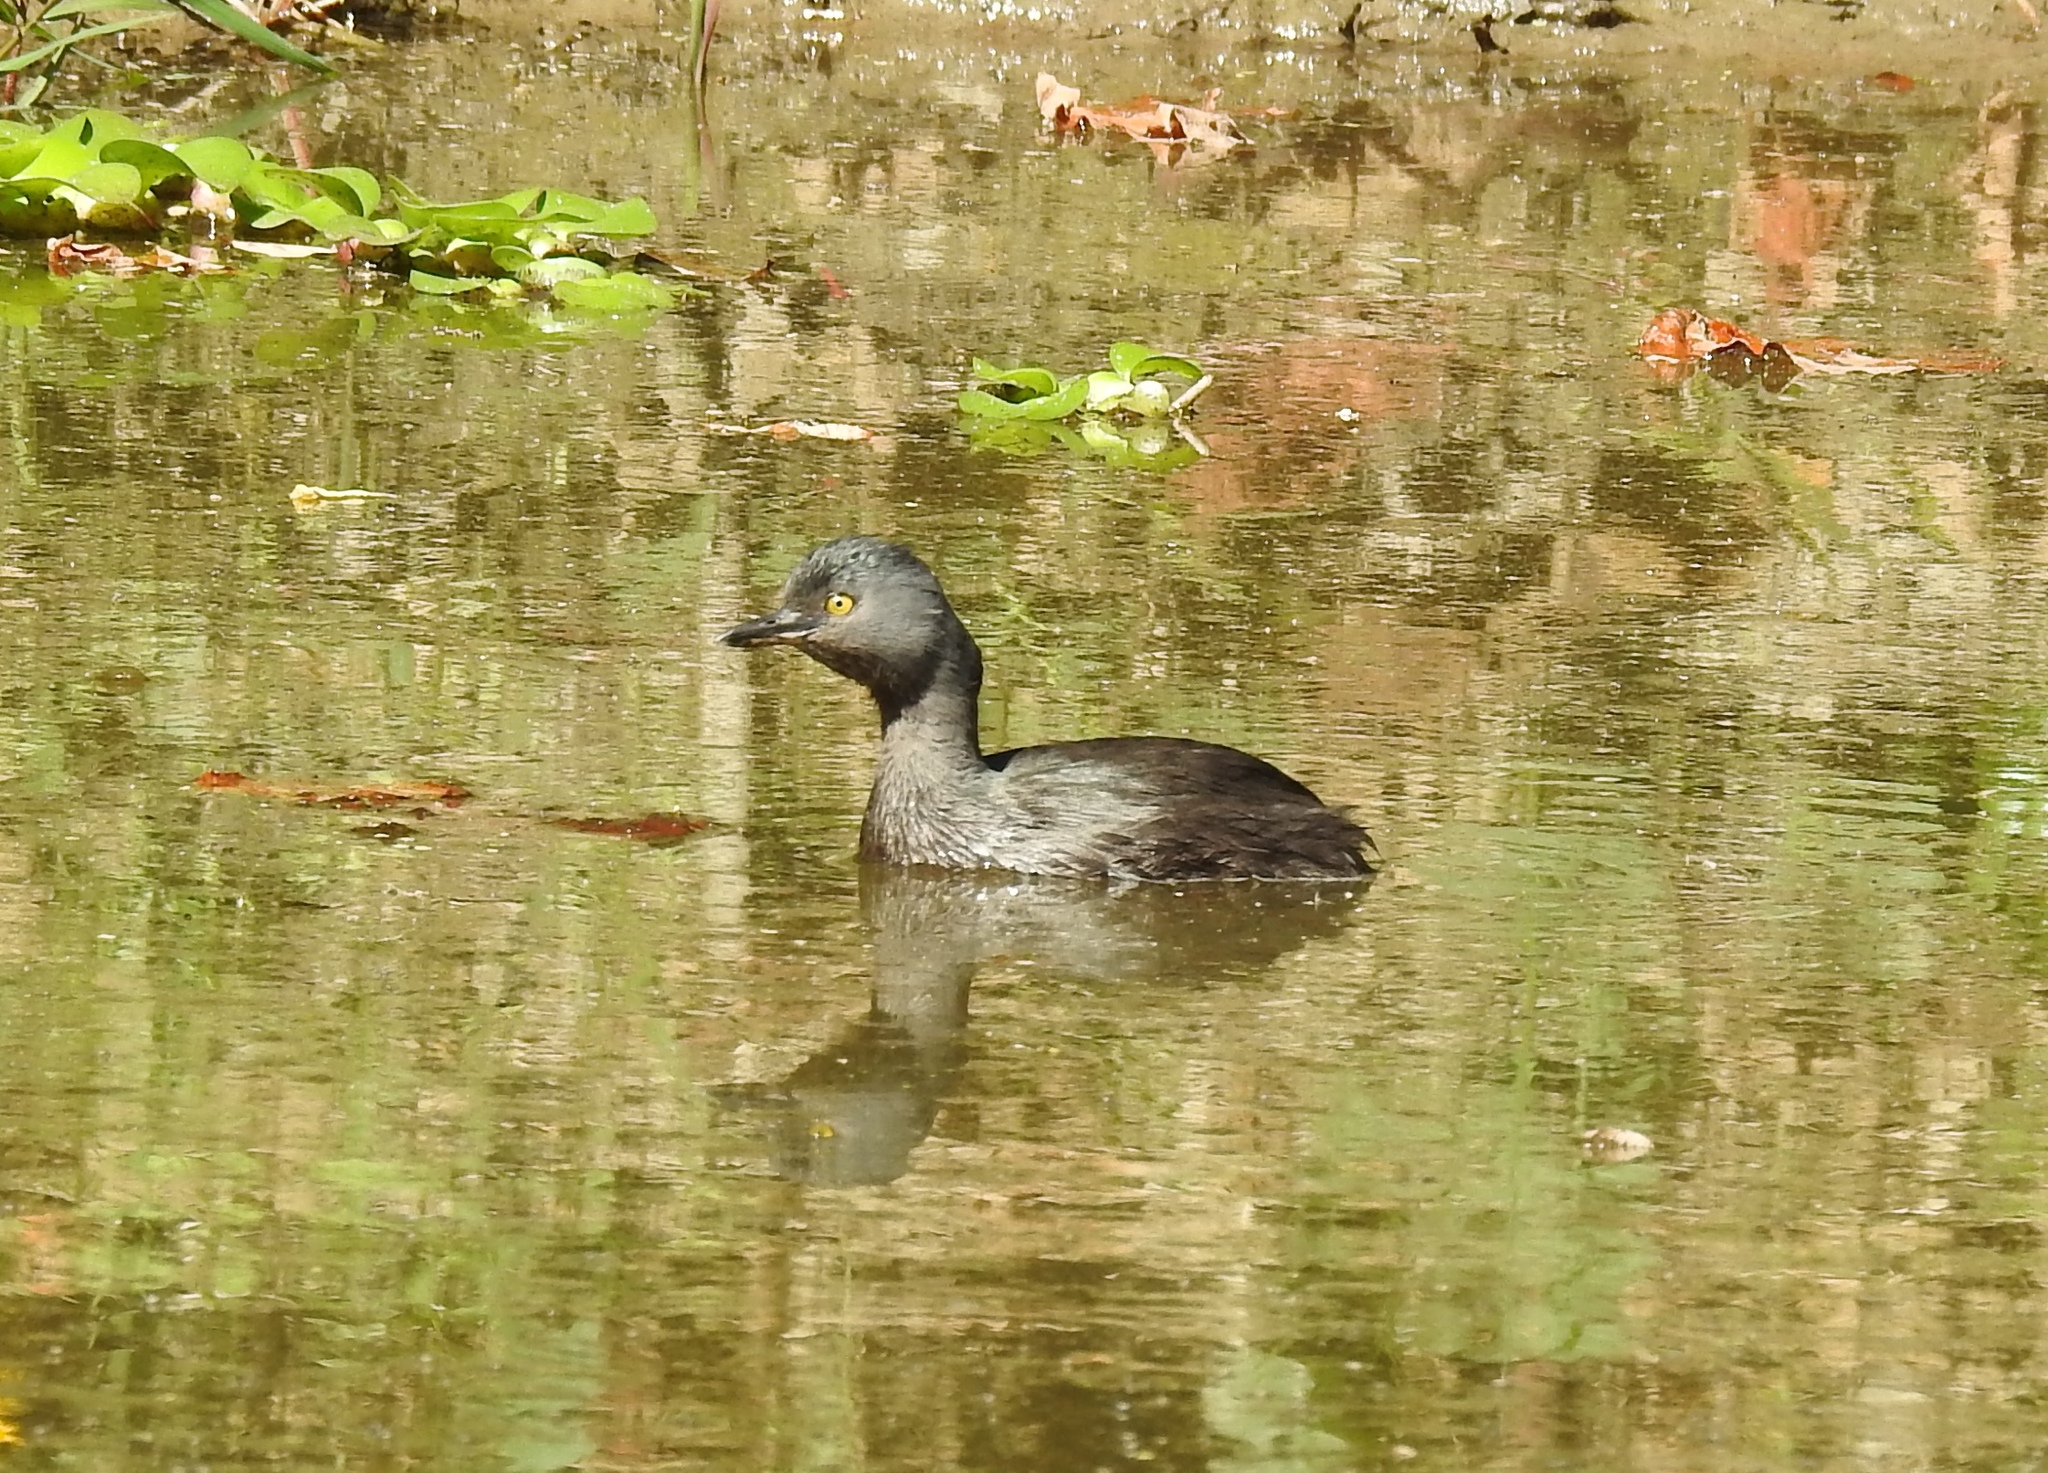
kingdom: Animalia
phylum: Chordata
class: Aves
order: Podicipediformes
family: Podicipedidae
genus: Tachybaptus
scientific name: Tachybaptus dominicus
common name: Least grebe
